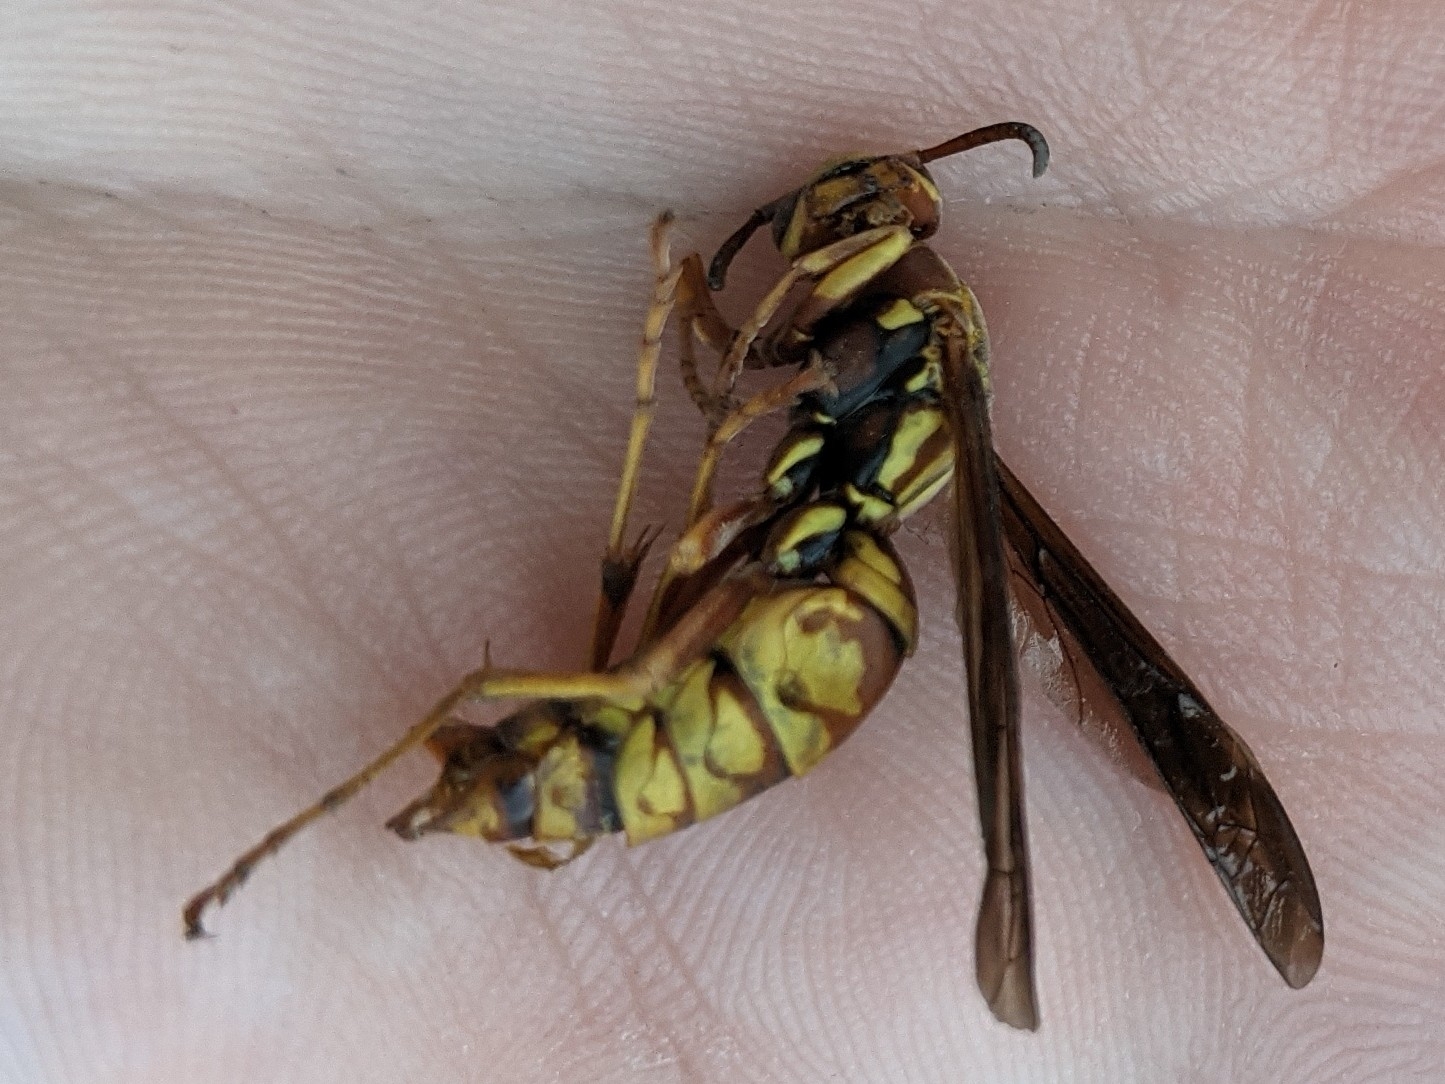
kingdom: Animalia
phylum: Arthropoda
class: Insecta
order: Hymenoptera
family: Eumenidae
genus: Polistes
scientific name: Polistes aurifer
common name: Paper wasp
